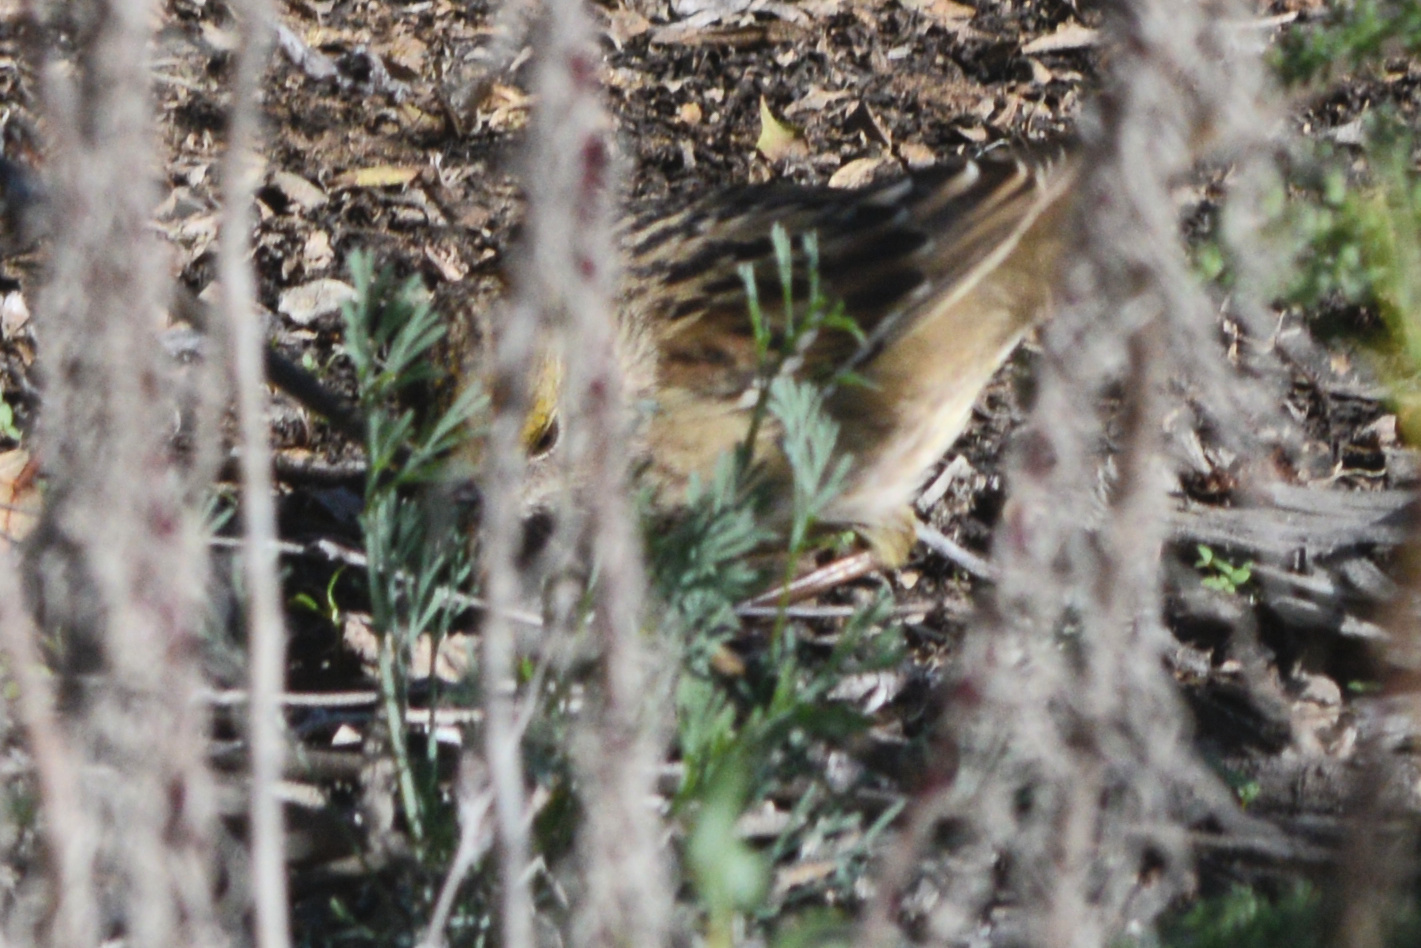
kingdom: Animalia
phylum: Chordata
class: Aves
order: Passeriformes
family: Passerellidae
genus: Zonotrichia
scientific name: Zonotrichia atricapilla
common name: Golden-crowned sparrow
